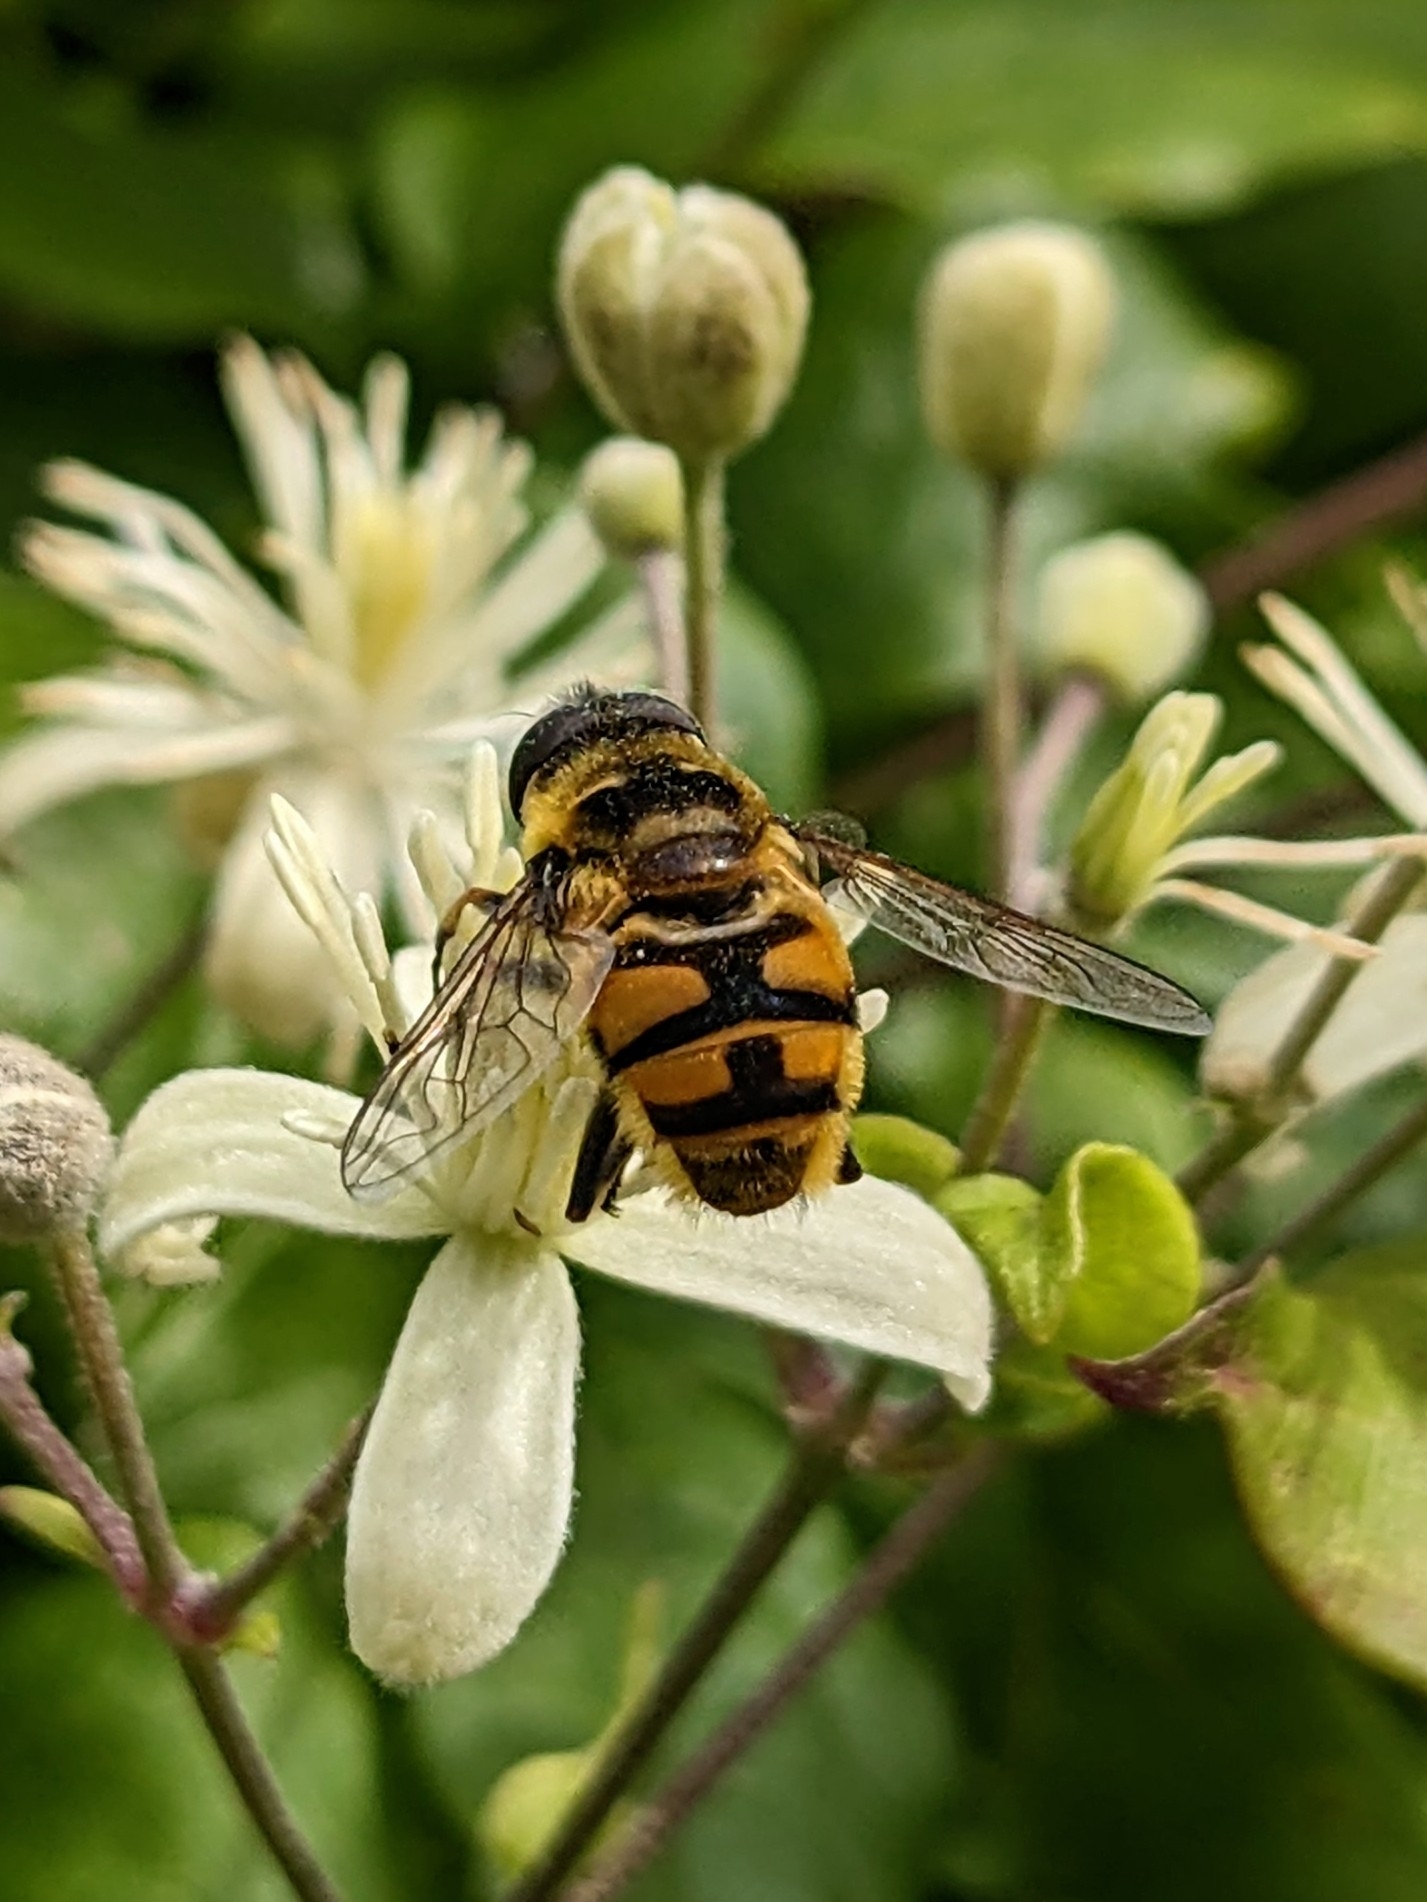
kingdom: Animalia
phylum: Arthropoda
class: Insecta
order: Diptera
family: Syrphidae
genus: Myathropa
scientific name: Myathropa florea
